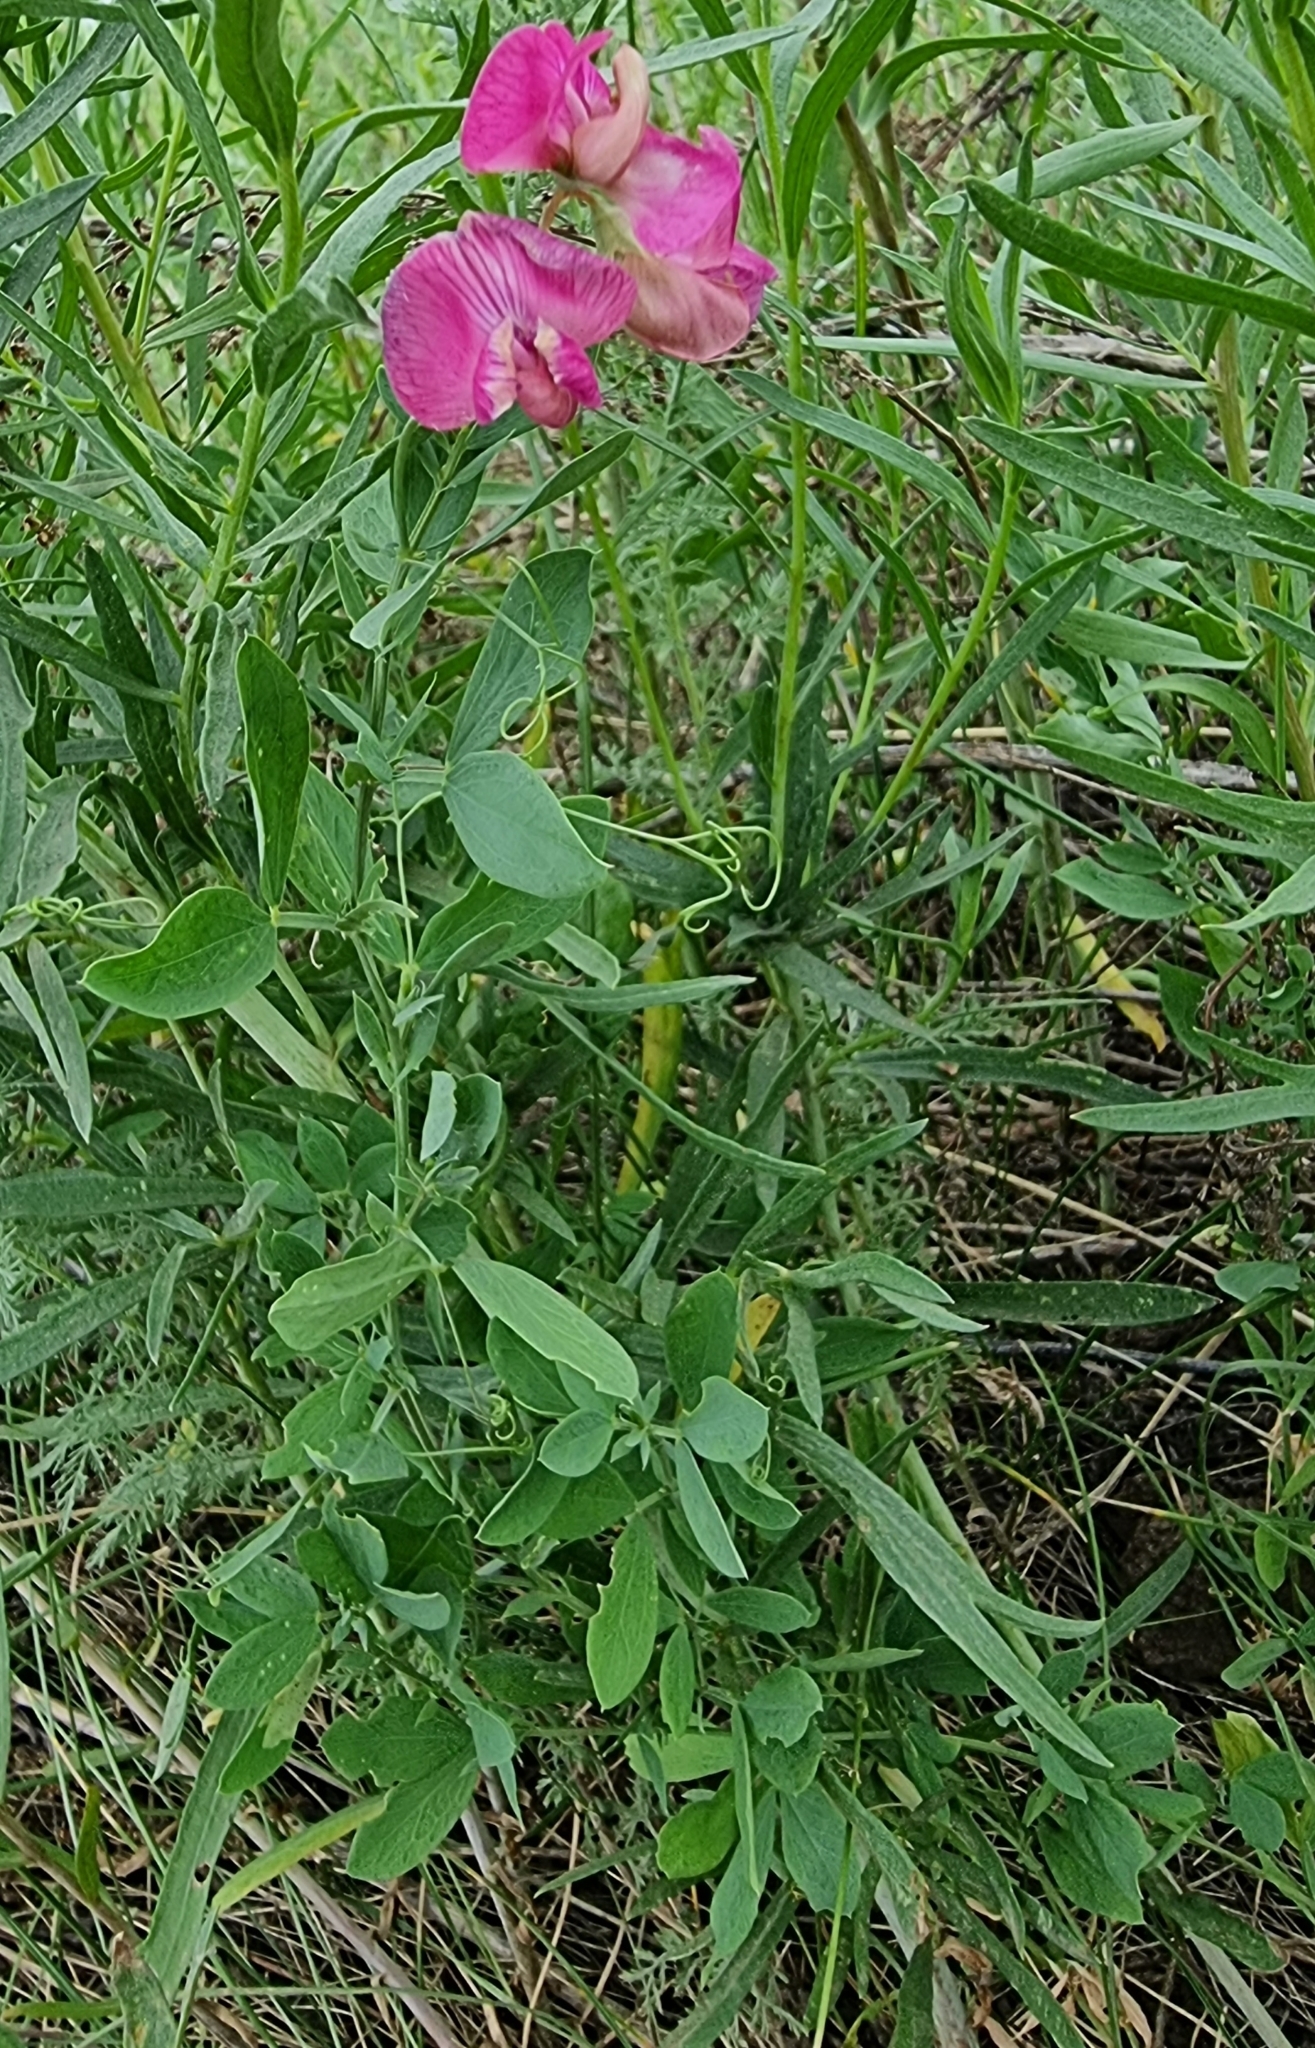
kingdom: Plantae
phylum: Tracheophyta
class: Magnoliopsida
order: Fabales
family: Fabaceae
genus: Lathyrus
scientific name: Lathyrus tuberosus
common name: Tuberous pea
